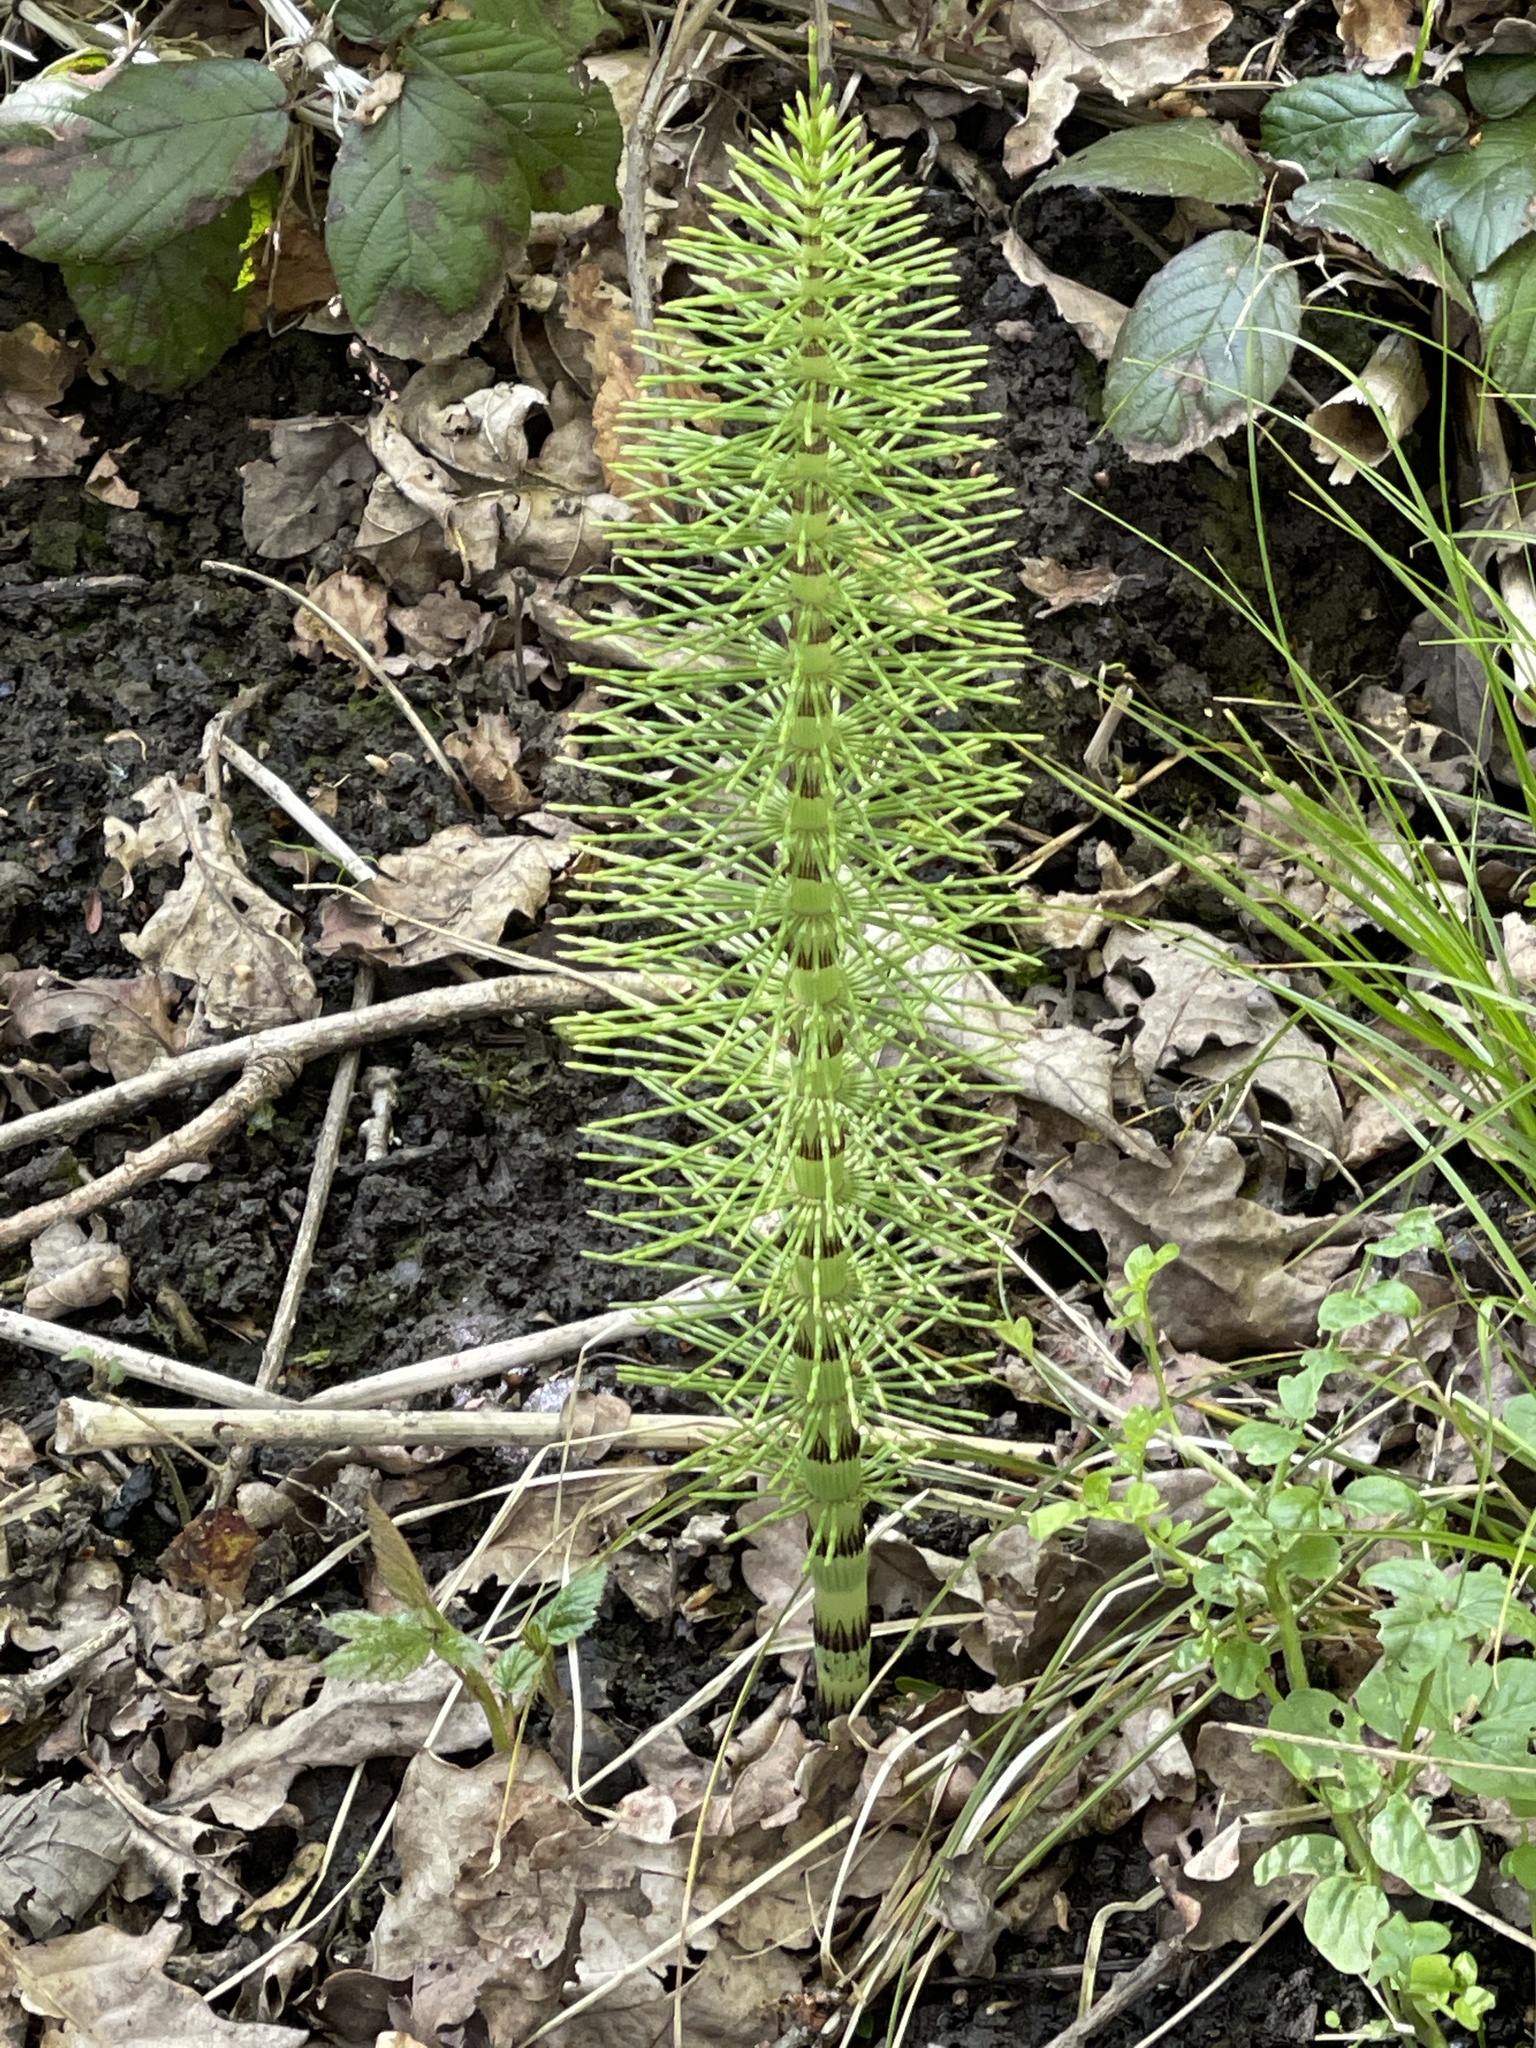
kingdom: Plantae
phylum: Tracheophyta
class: Polypodiopsida
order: Equisetales
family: Equisetaceae
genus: Equisetum
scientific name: Equisetum telmateia
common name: Great horsetail
